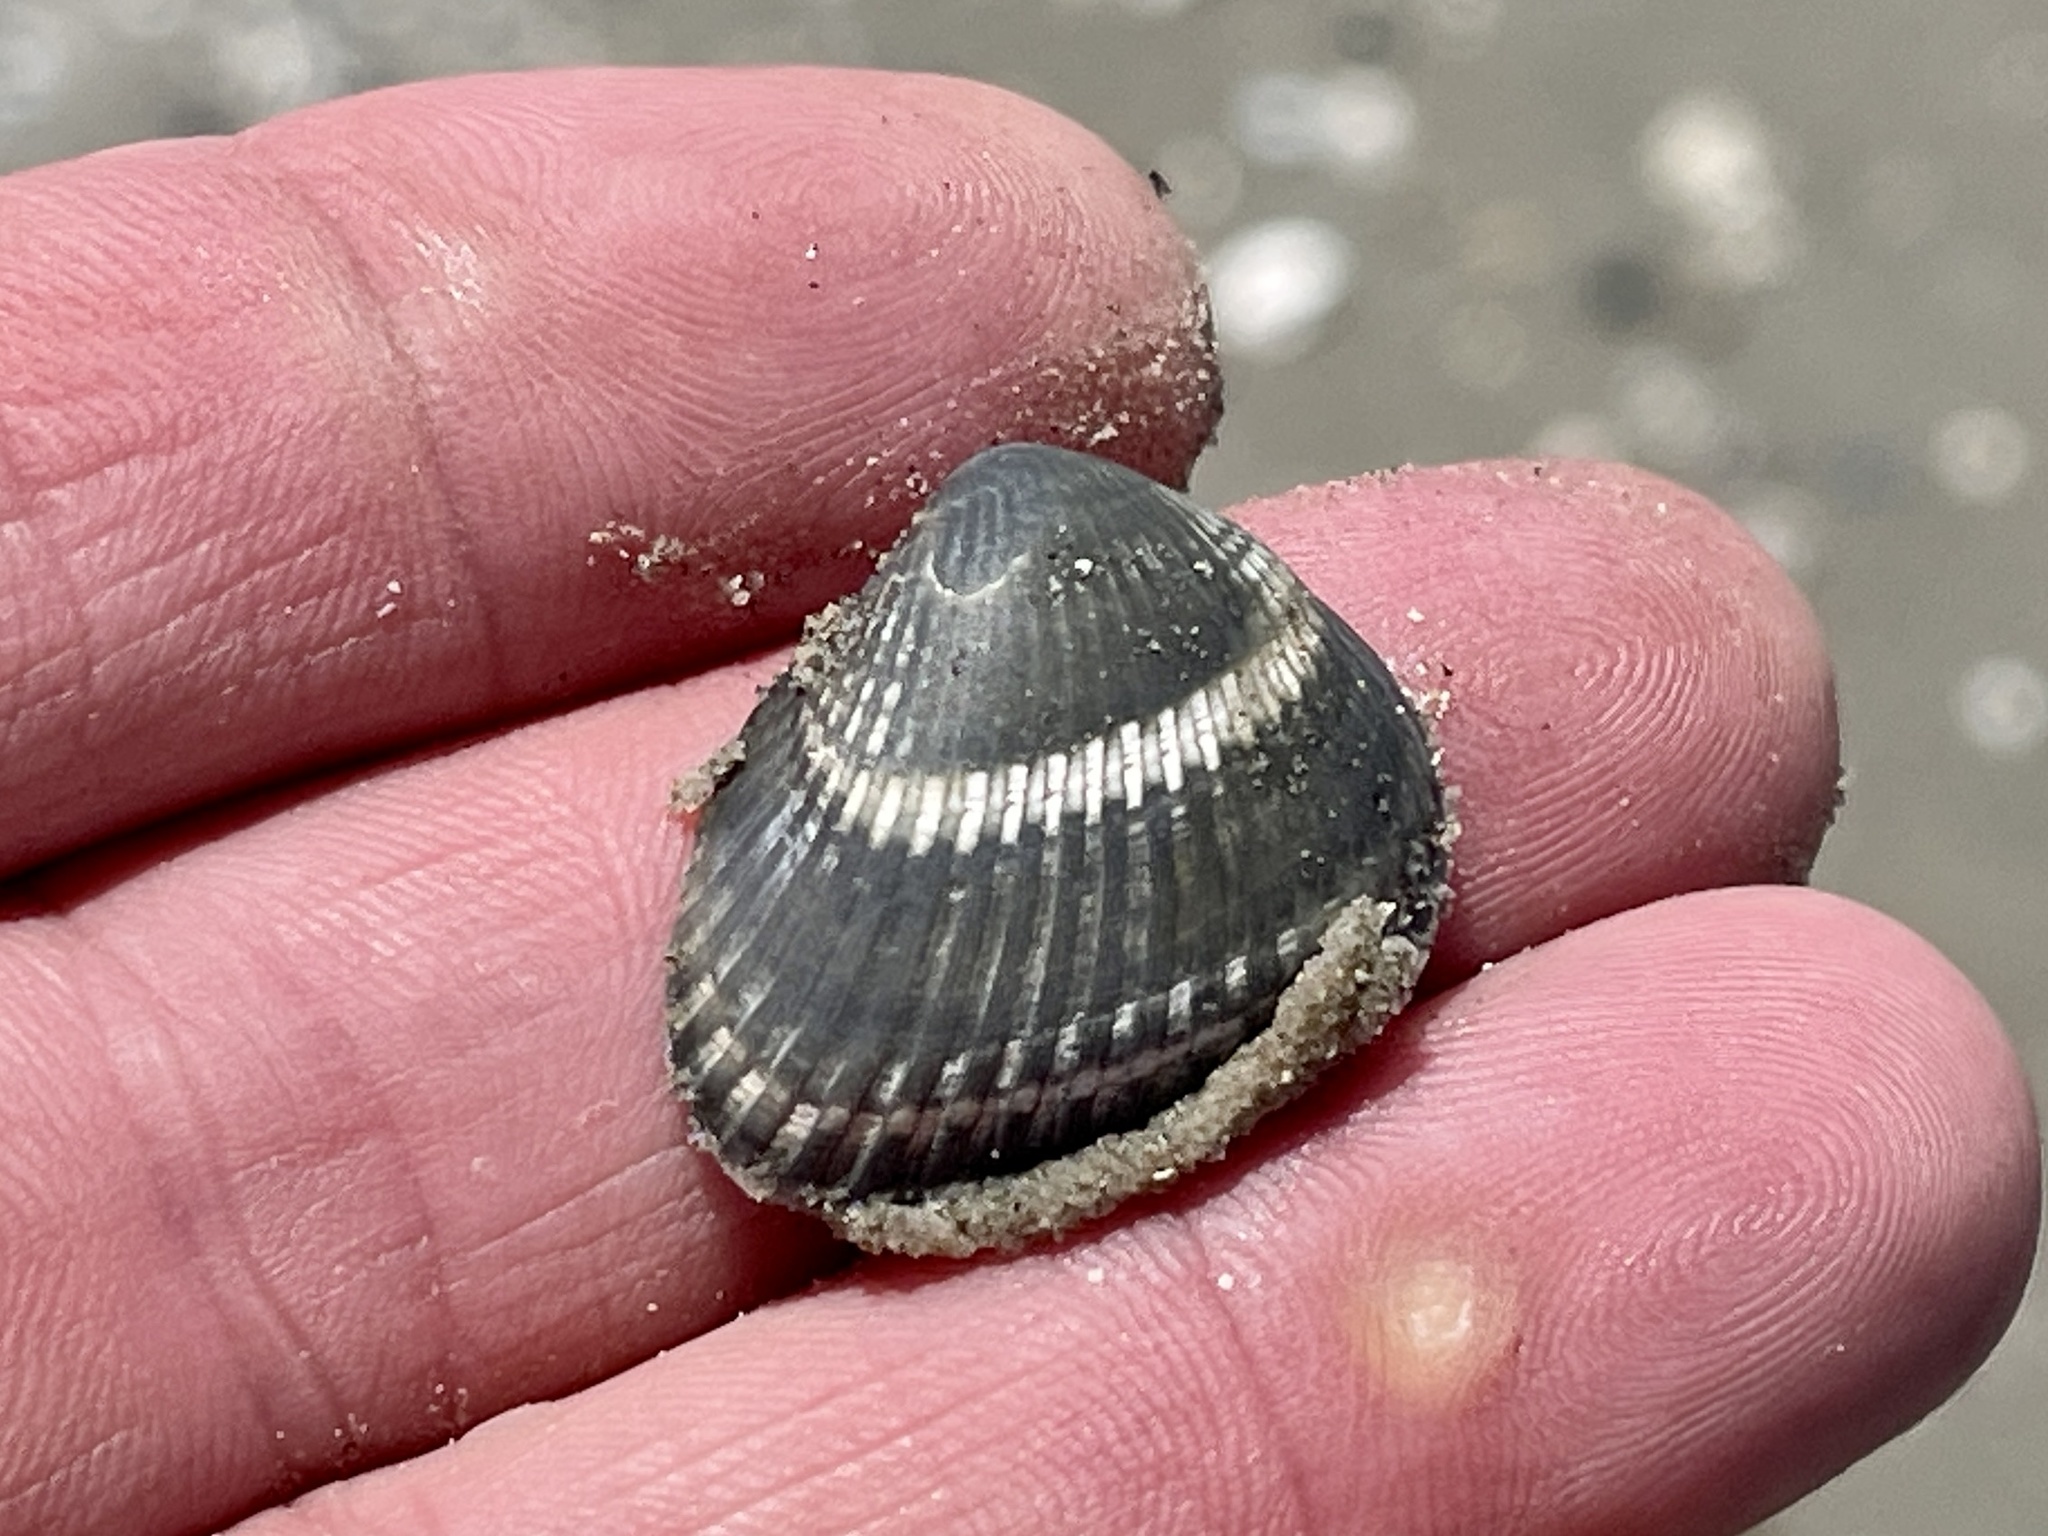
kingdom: Animalia
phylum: Mollusca
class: Bivalvia
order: Arcida
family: Noetiidae
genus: Noetia
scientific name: Noetia ponderosa
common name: Ponderous ark
